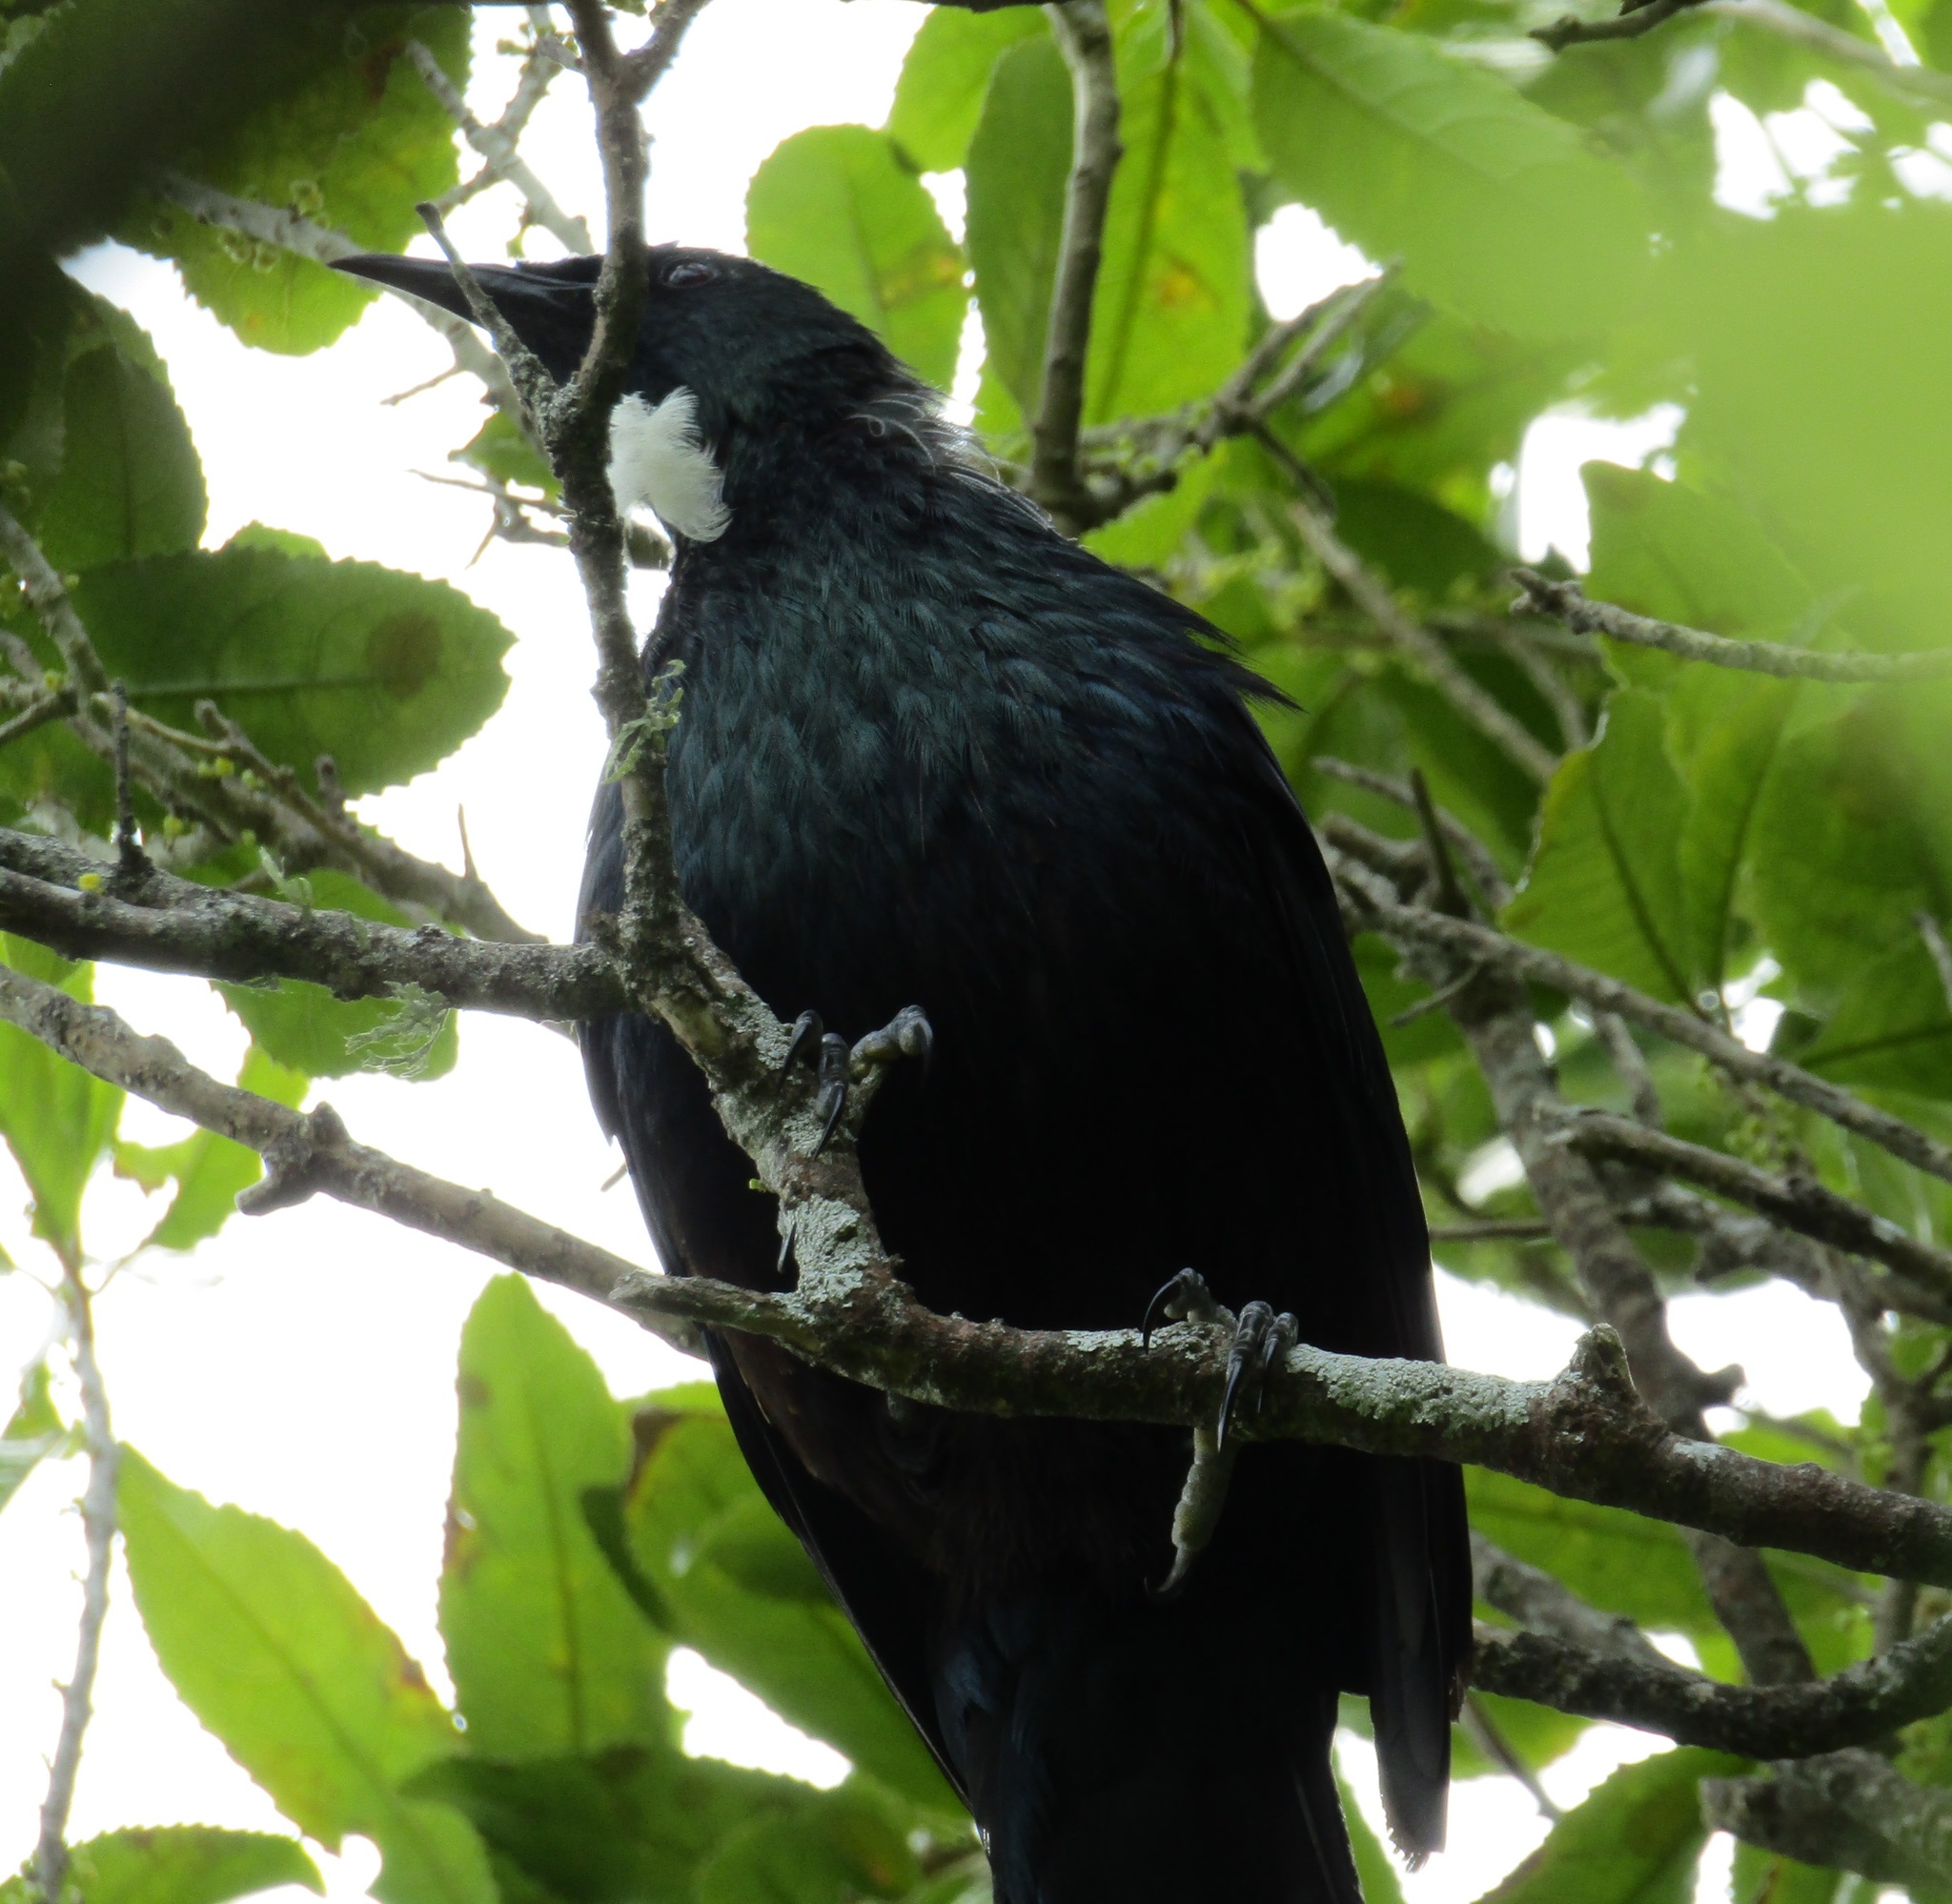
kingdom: Animalia
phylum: Chordata
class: Aves
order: Passeriformes
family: Meliphagidae
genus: Prosthemadera
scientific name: Prosthemadera novaeseelandiae
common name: Tui
